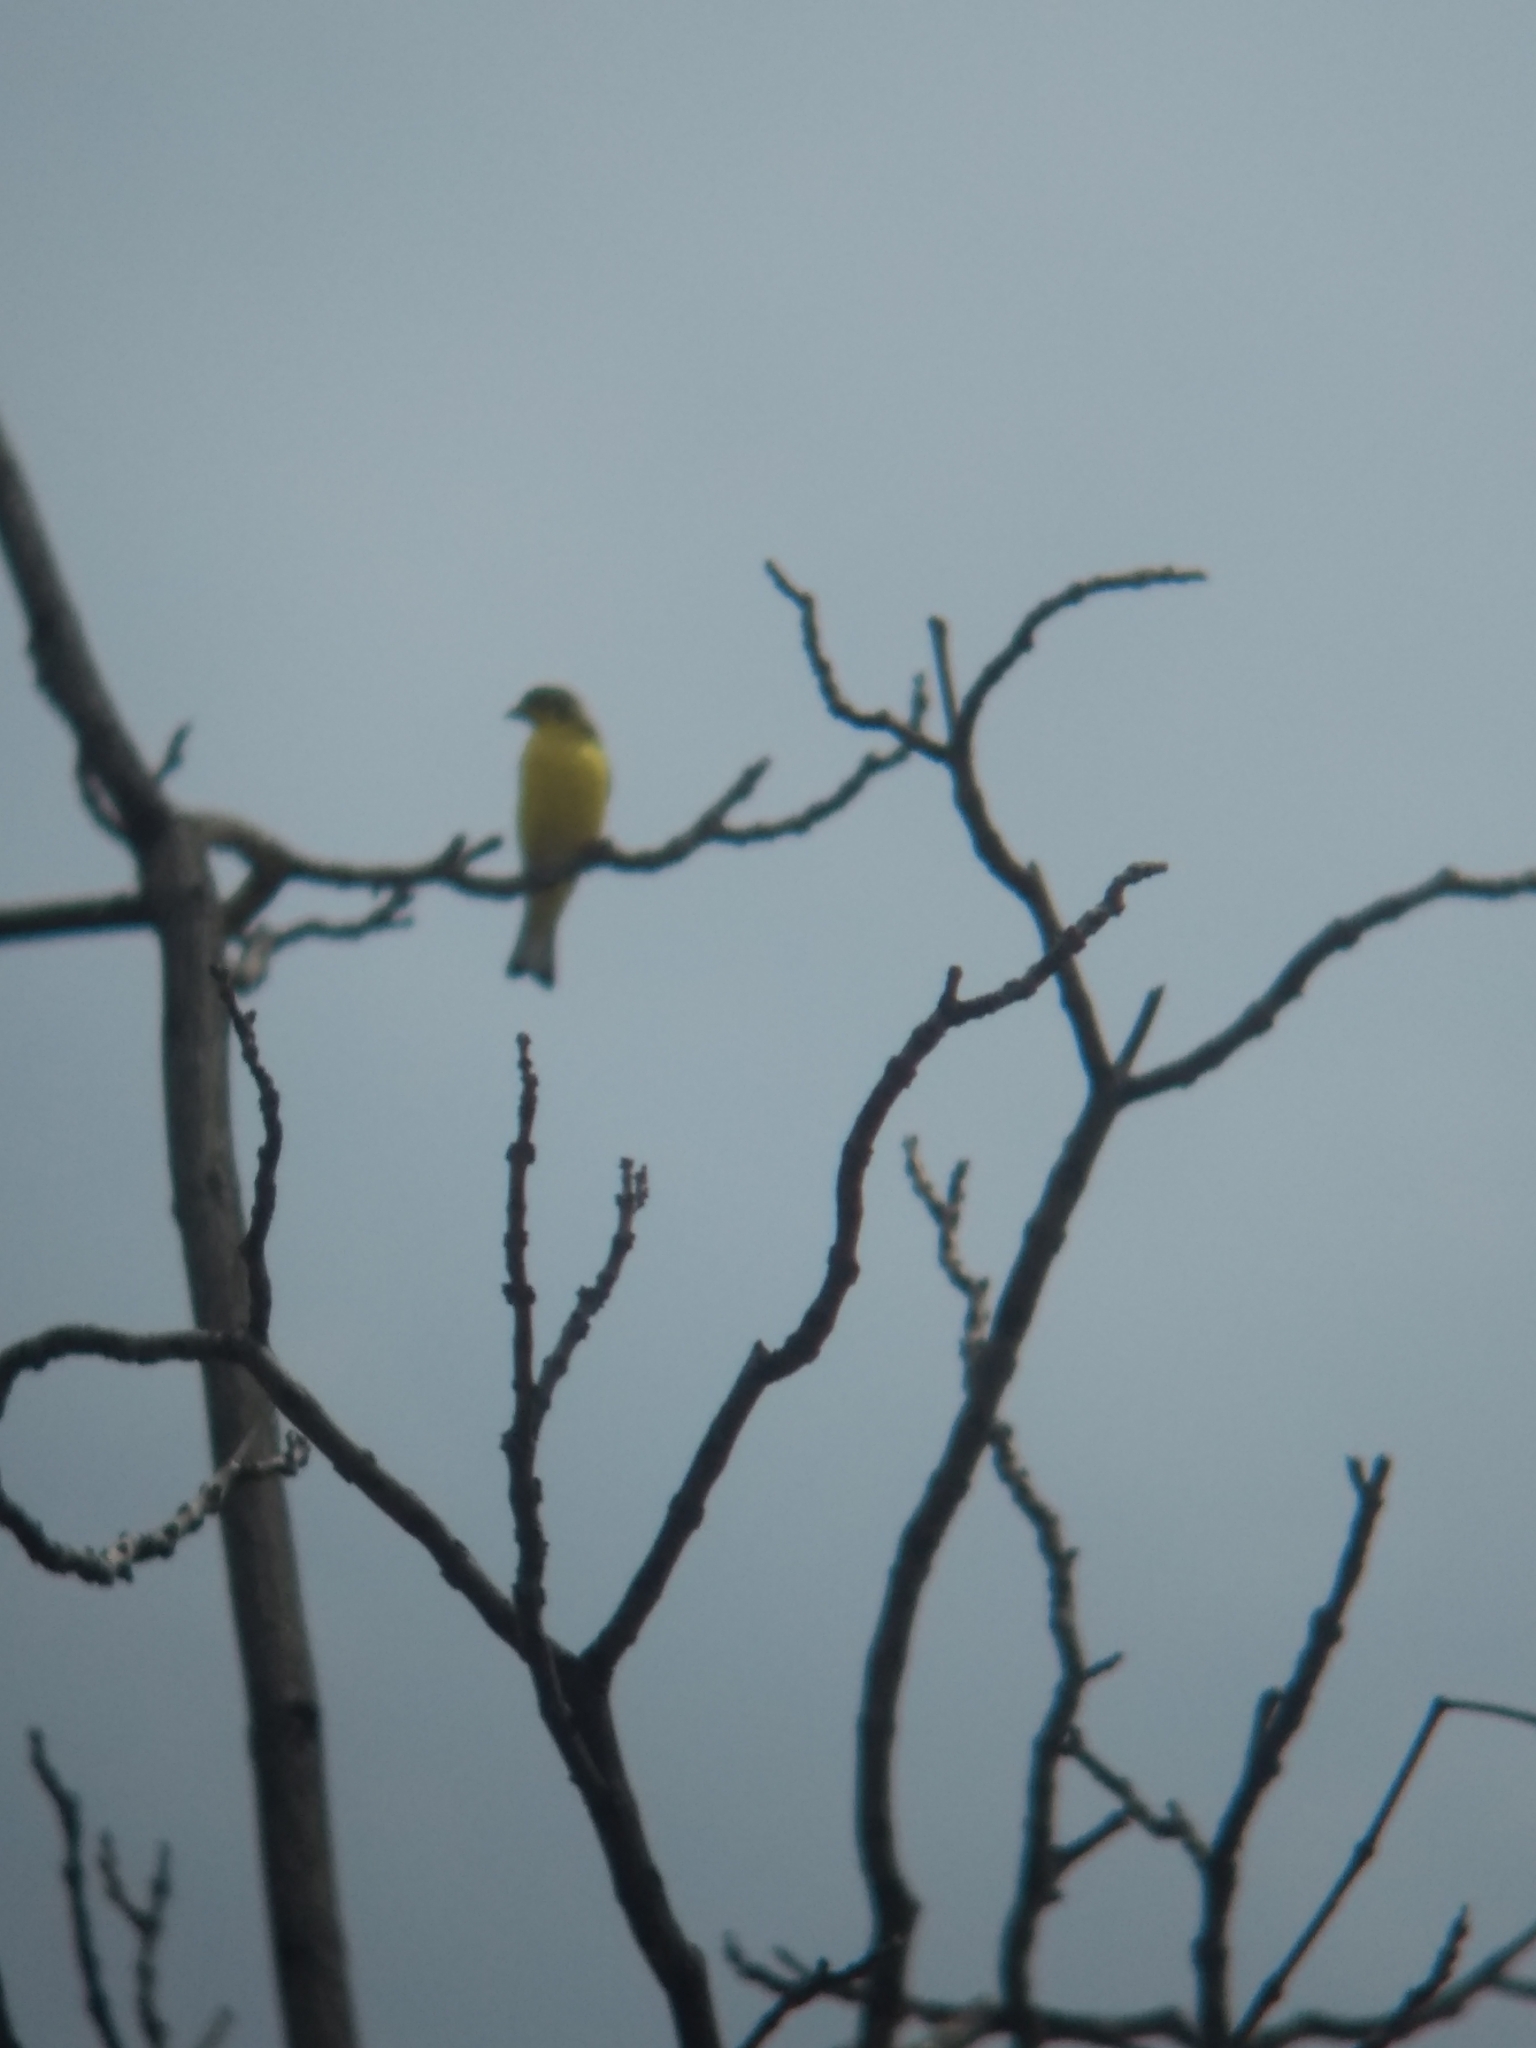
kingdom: Animalia
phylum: Chordata
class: Aves
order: Passeriformes
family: Fringillidae
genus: Spinus
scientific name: Spinus psaltria
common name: Lesser goldfinch
